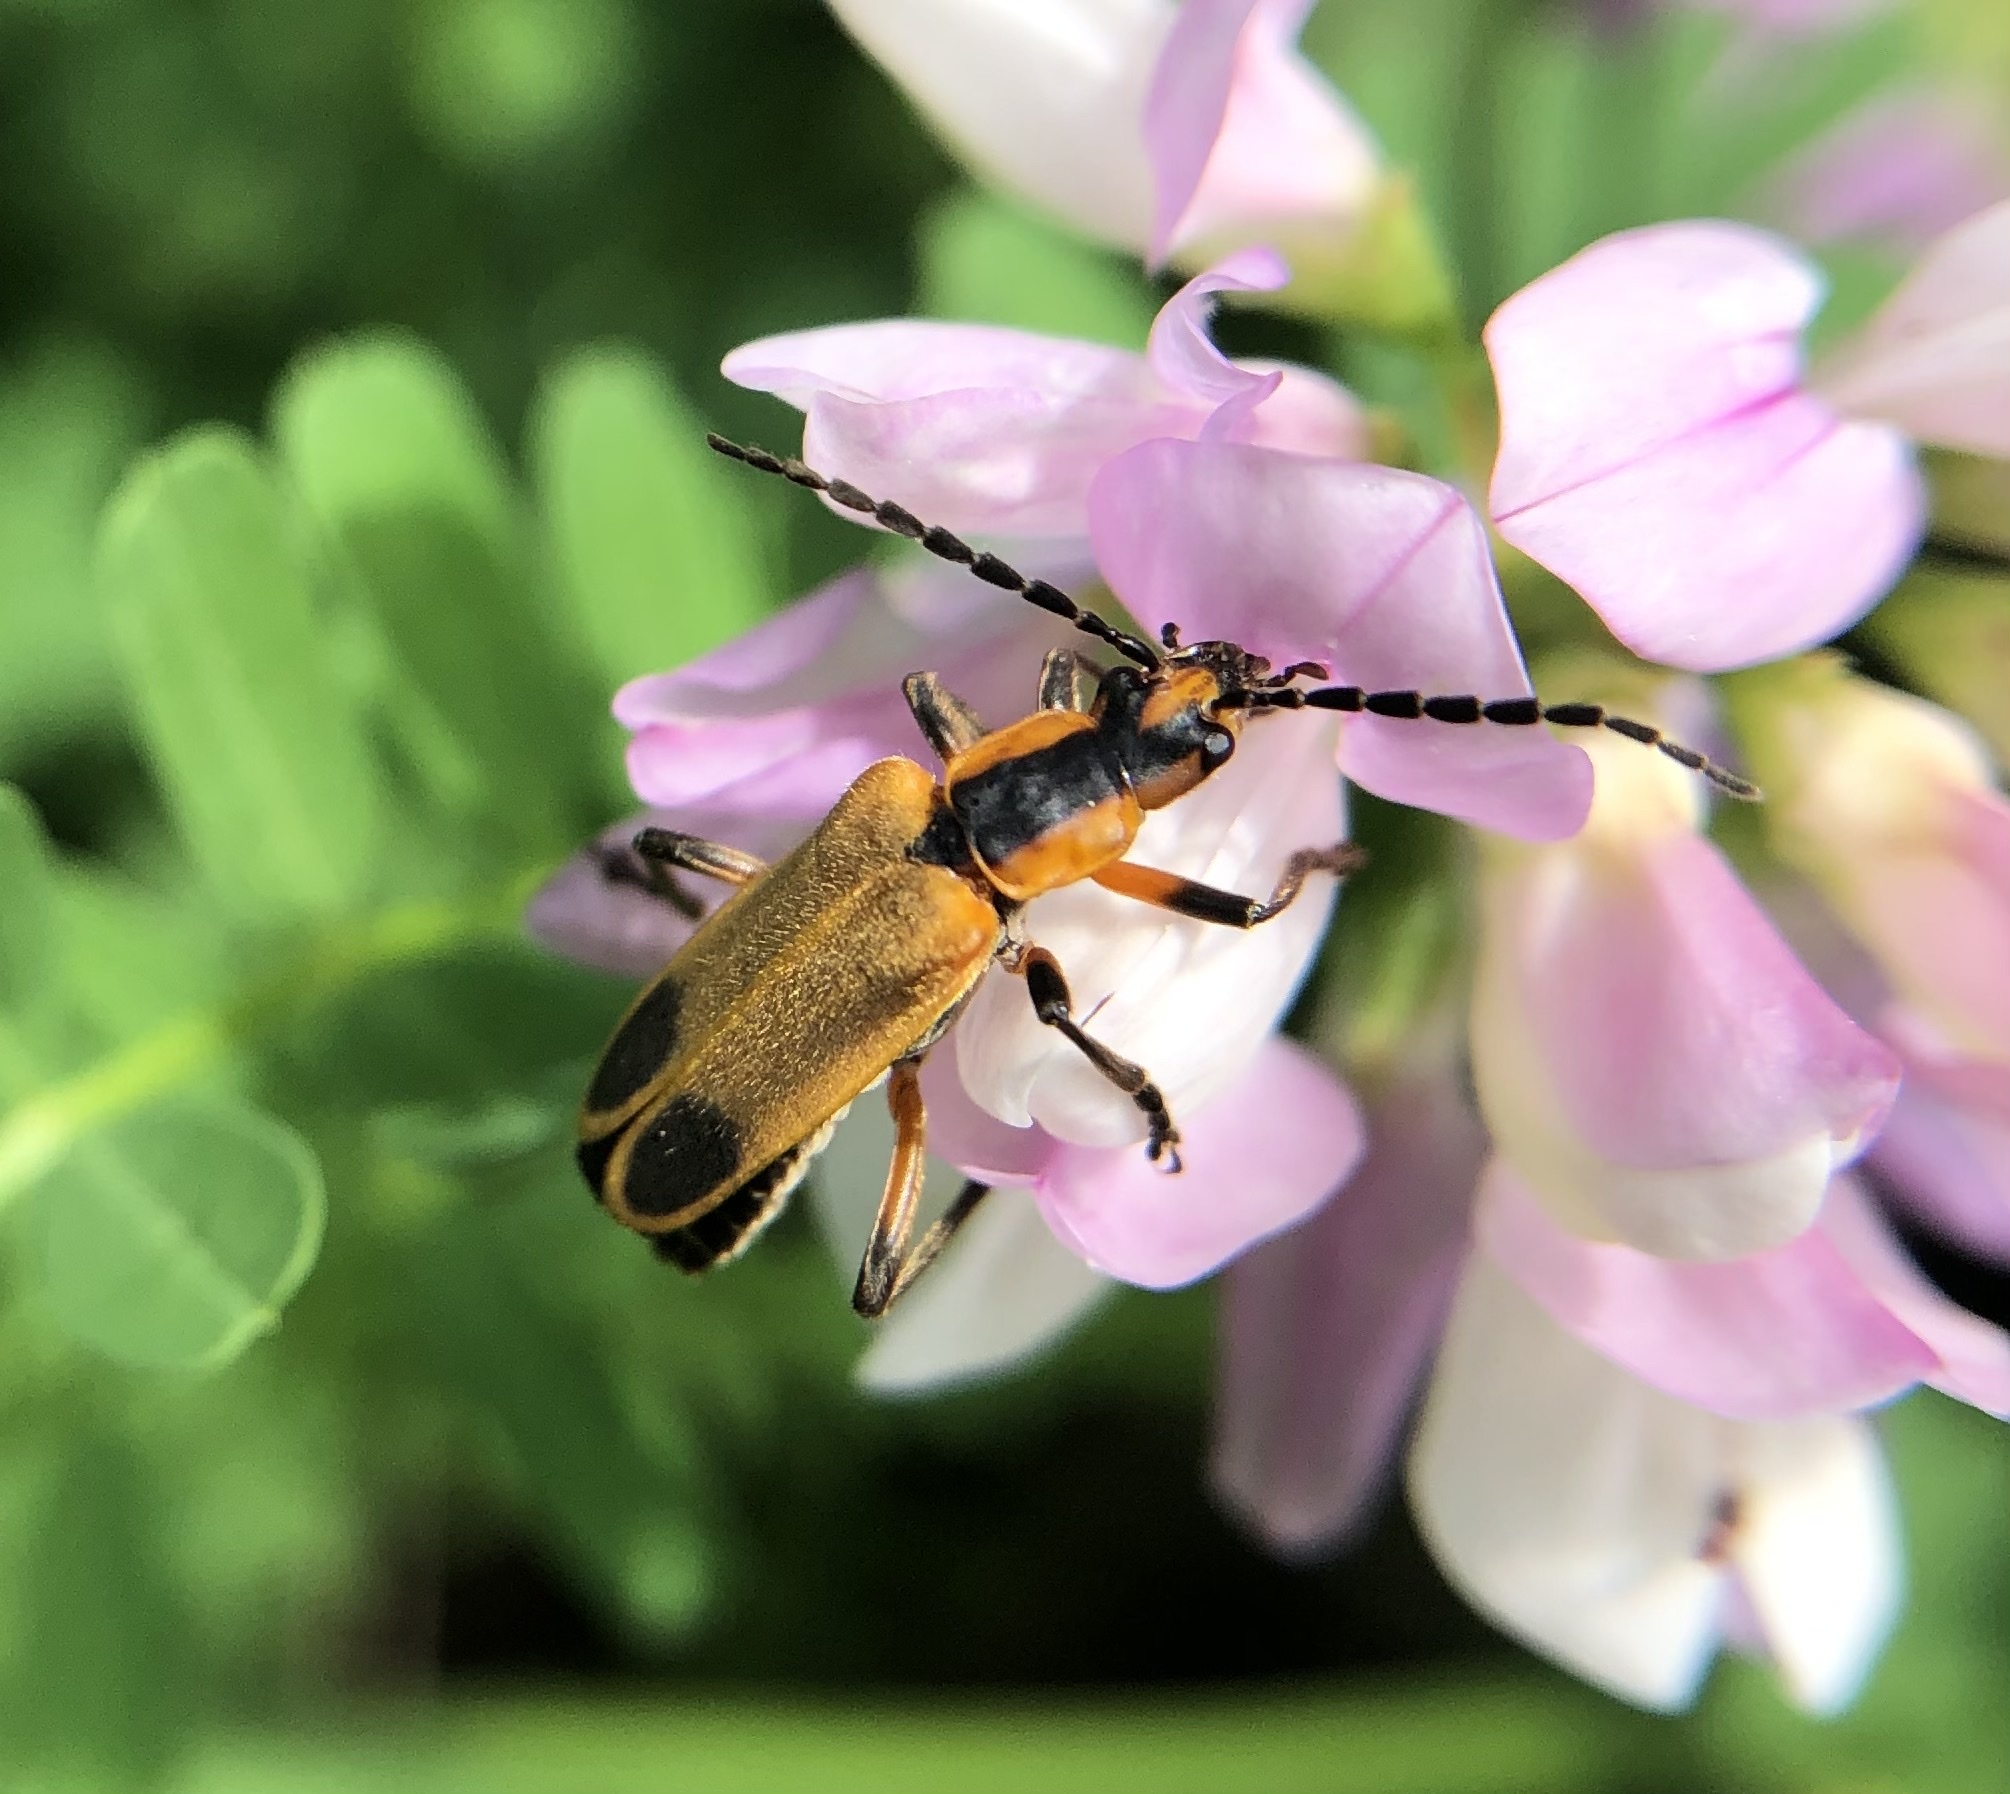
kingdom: Animalia
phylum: Arthropoda
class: Insecta
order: Coleoptera
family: Cantharidae
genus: Chauliognathus
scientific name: Chauliognathus marginatus
